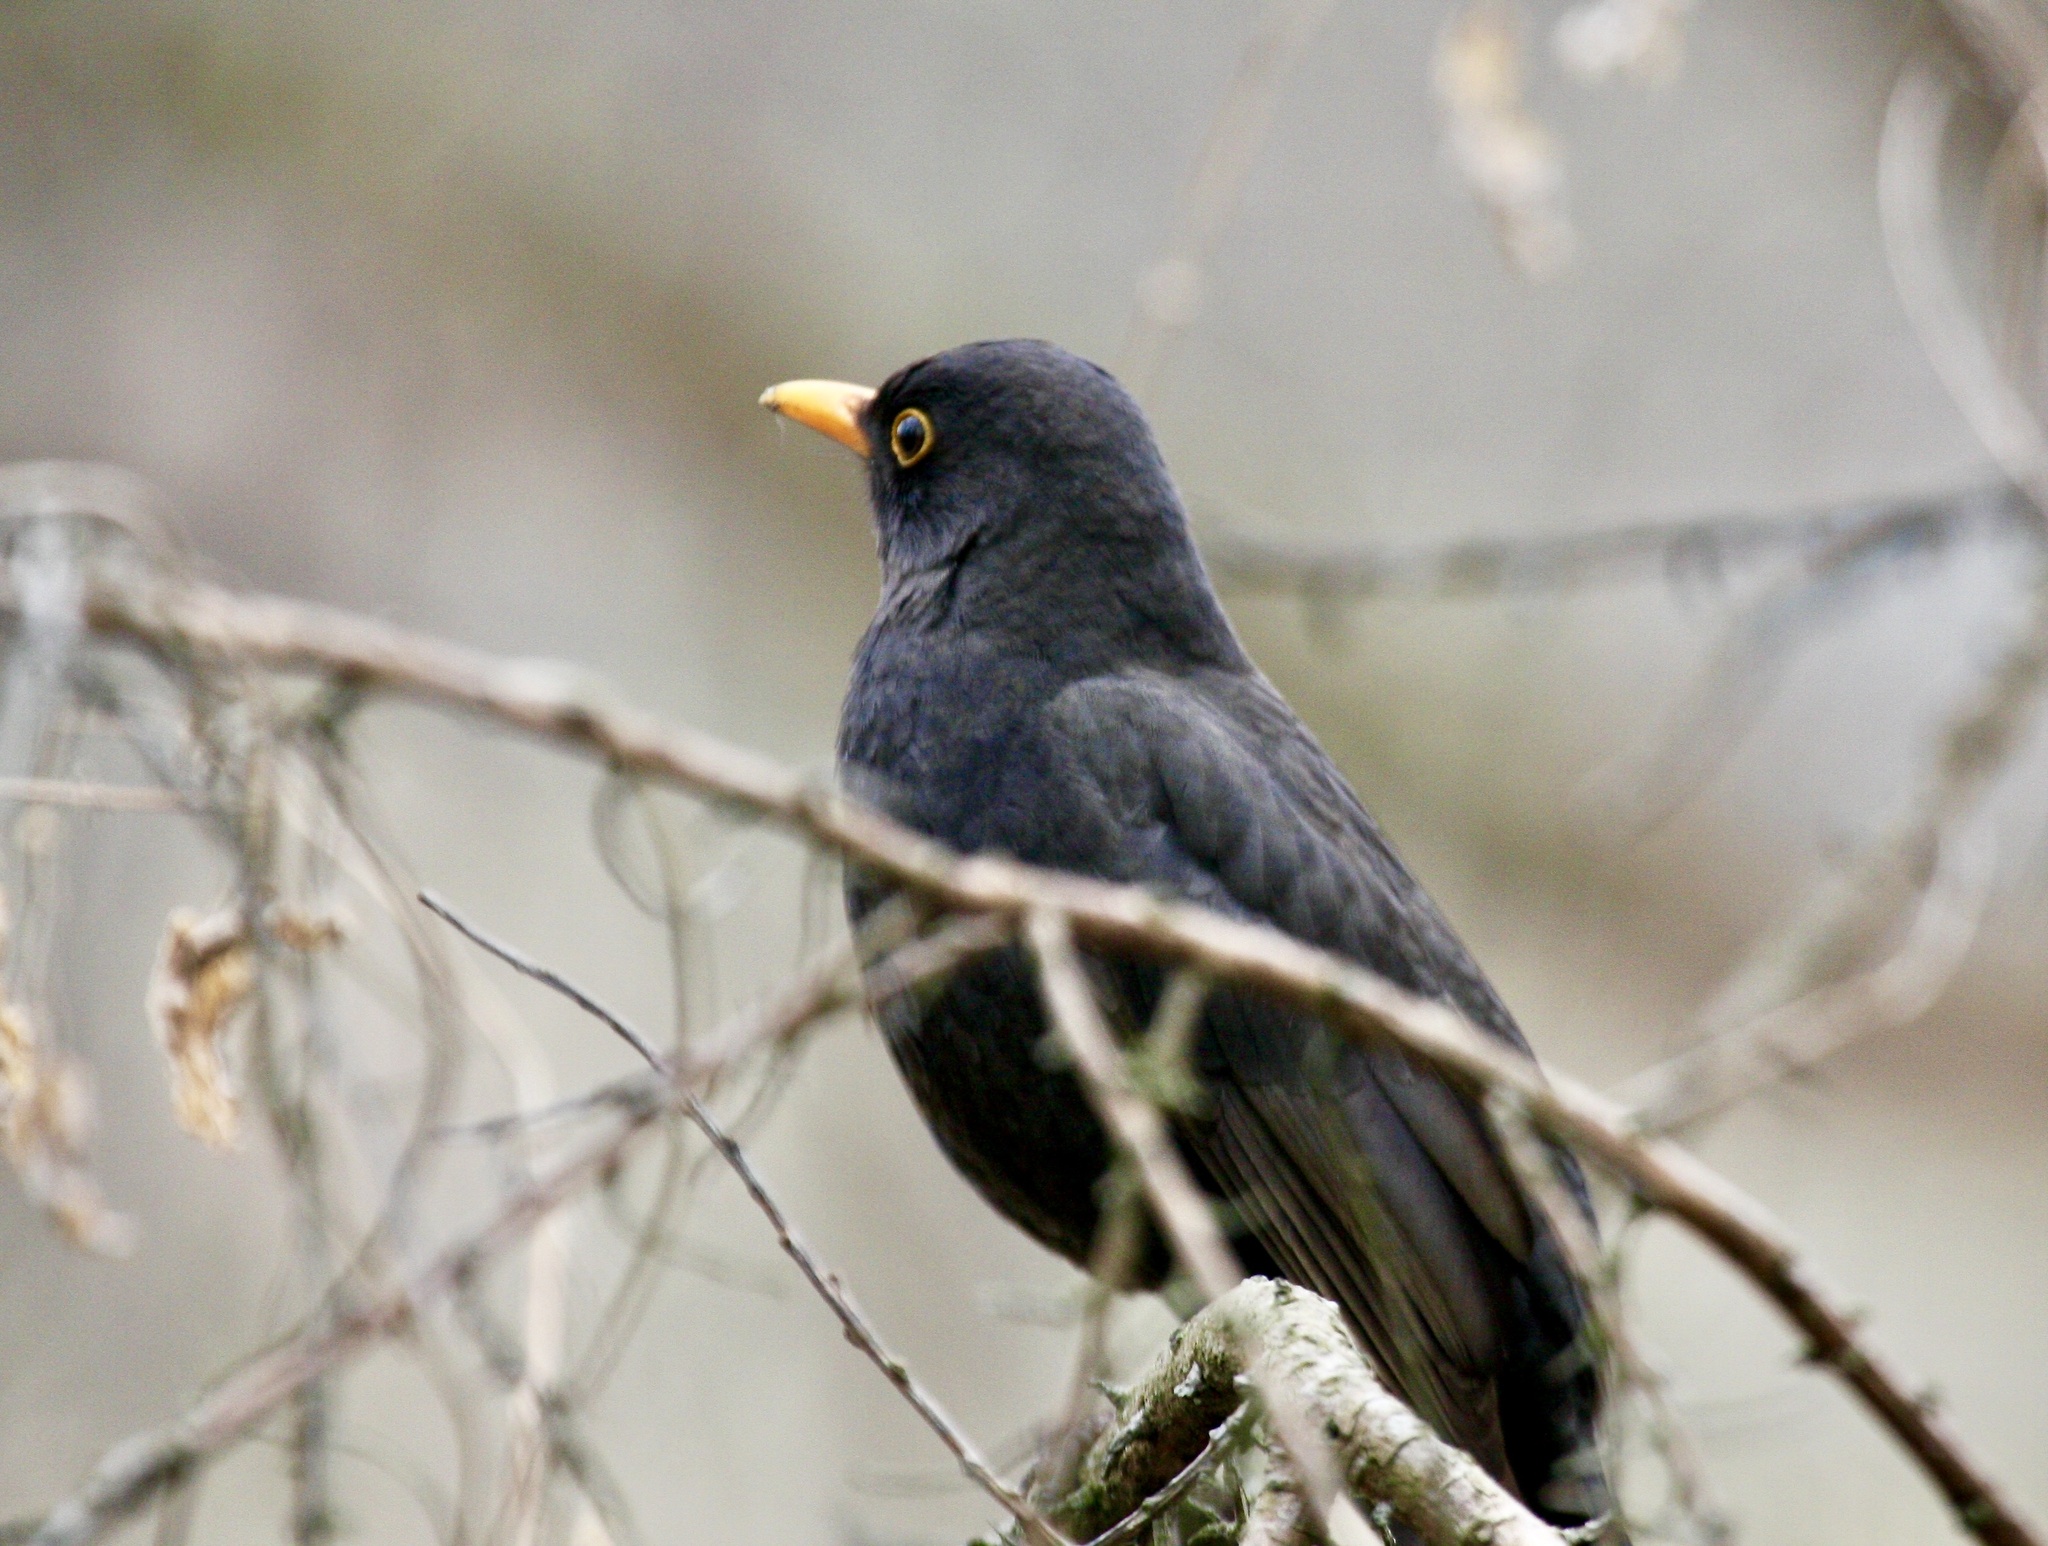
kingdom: Animalia
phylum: Chordata
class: Aves
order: Passeriformes
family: Turdidae
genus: Turdus
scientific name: Turdus merula
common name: Common blackbird
